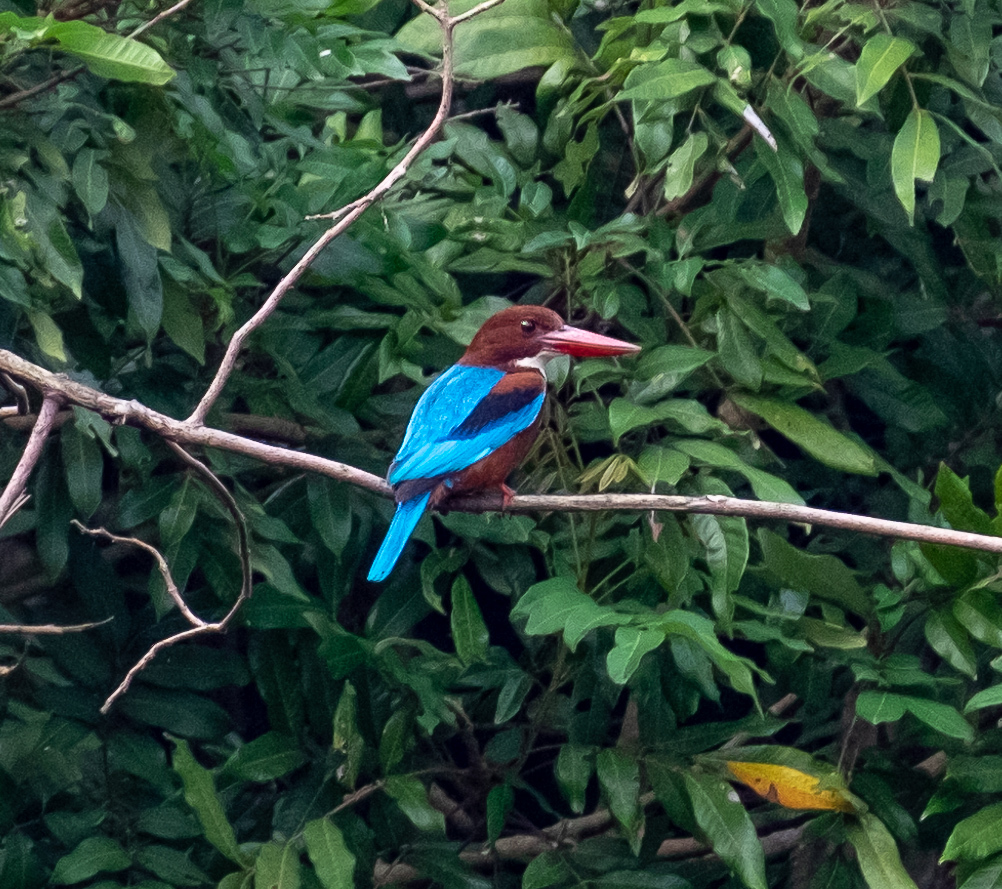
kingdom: Animalia
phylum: Chordata
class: Aves
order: Coraciiformes
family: Alcedinidae
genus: Halcyon
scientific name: Halcyon smyrnensis
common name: White-throated kingfisher
